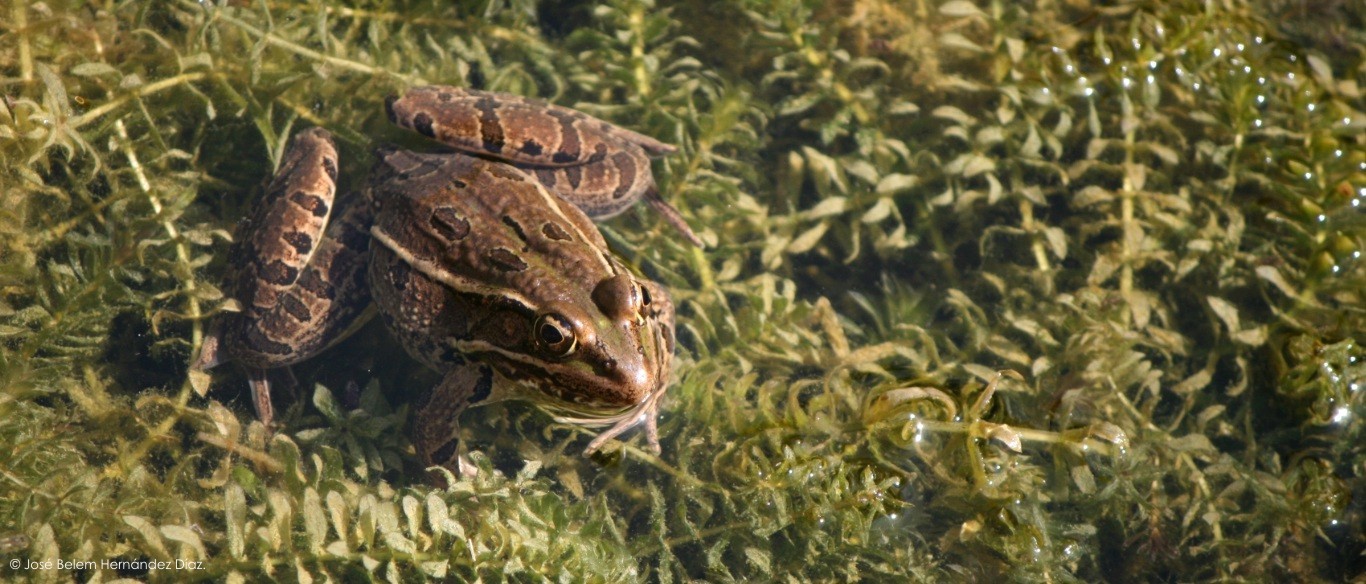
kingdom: Animalia
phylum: Chordata
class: Amphibia
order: Anura
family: Ranidae
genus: Lithobates
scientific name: Lithobates berlandieri
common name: Rio grande leopard frog
